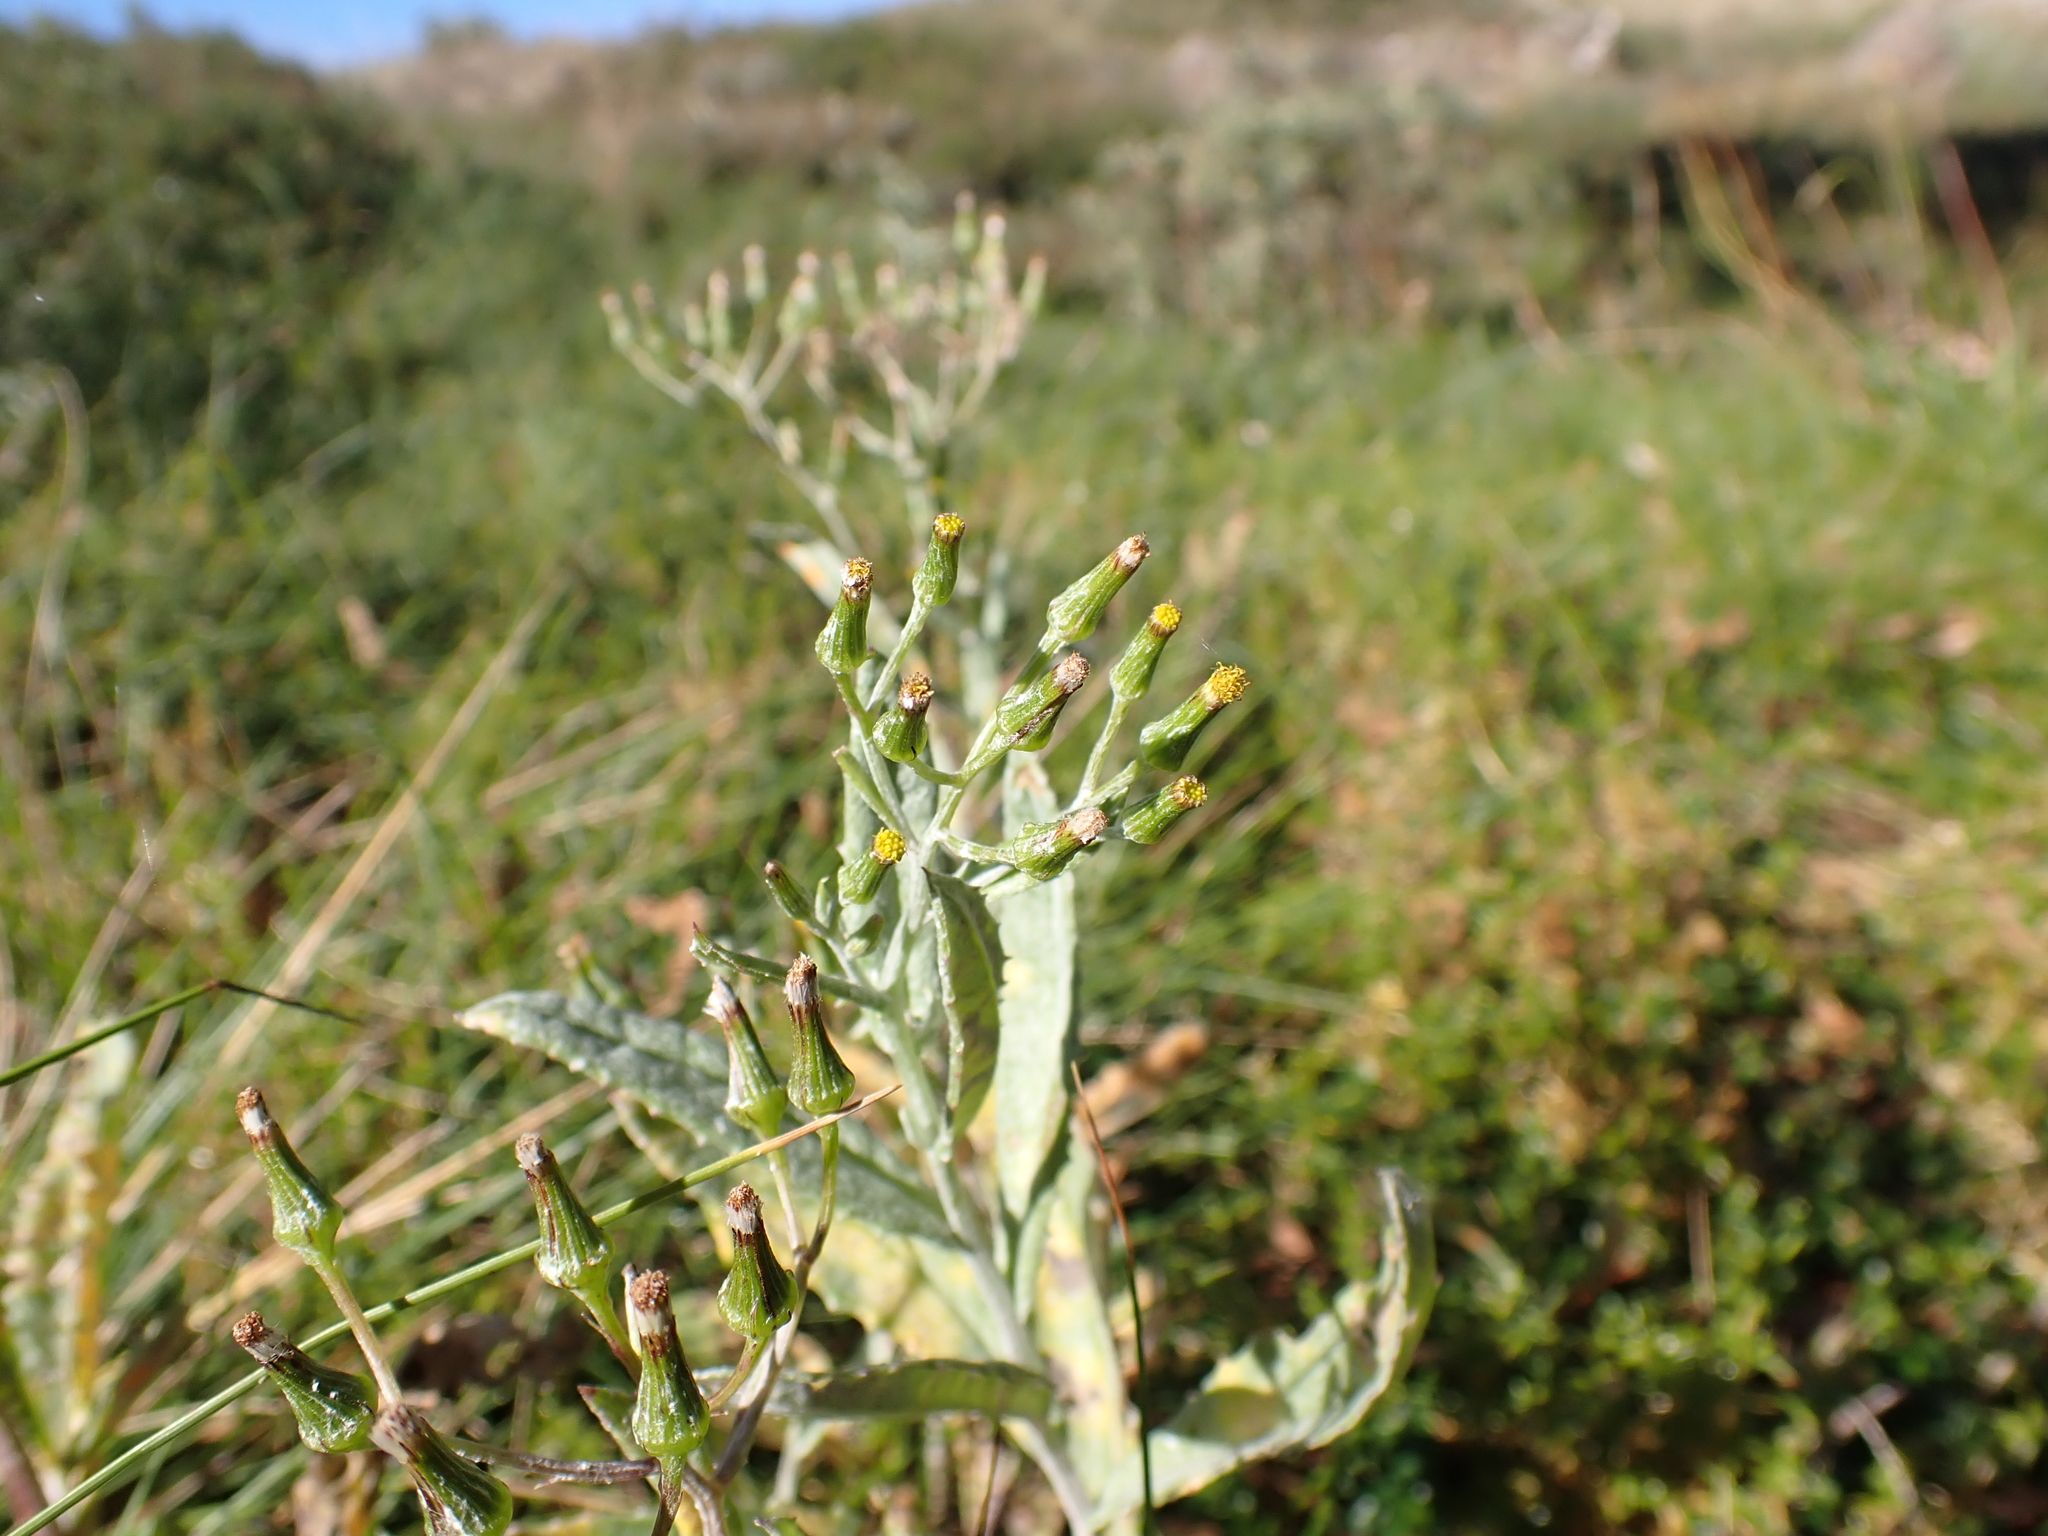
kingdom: Plantae
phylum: Tracheophyta
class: Magnoliopsida
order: Asterales
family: Asteraceae
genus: Senecio
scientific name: Senecio gunnii
